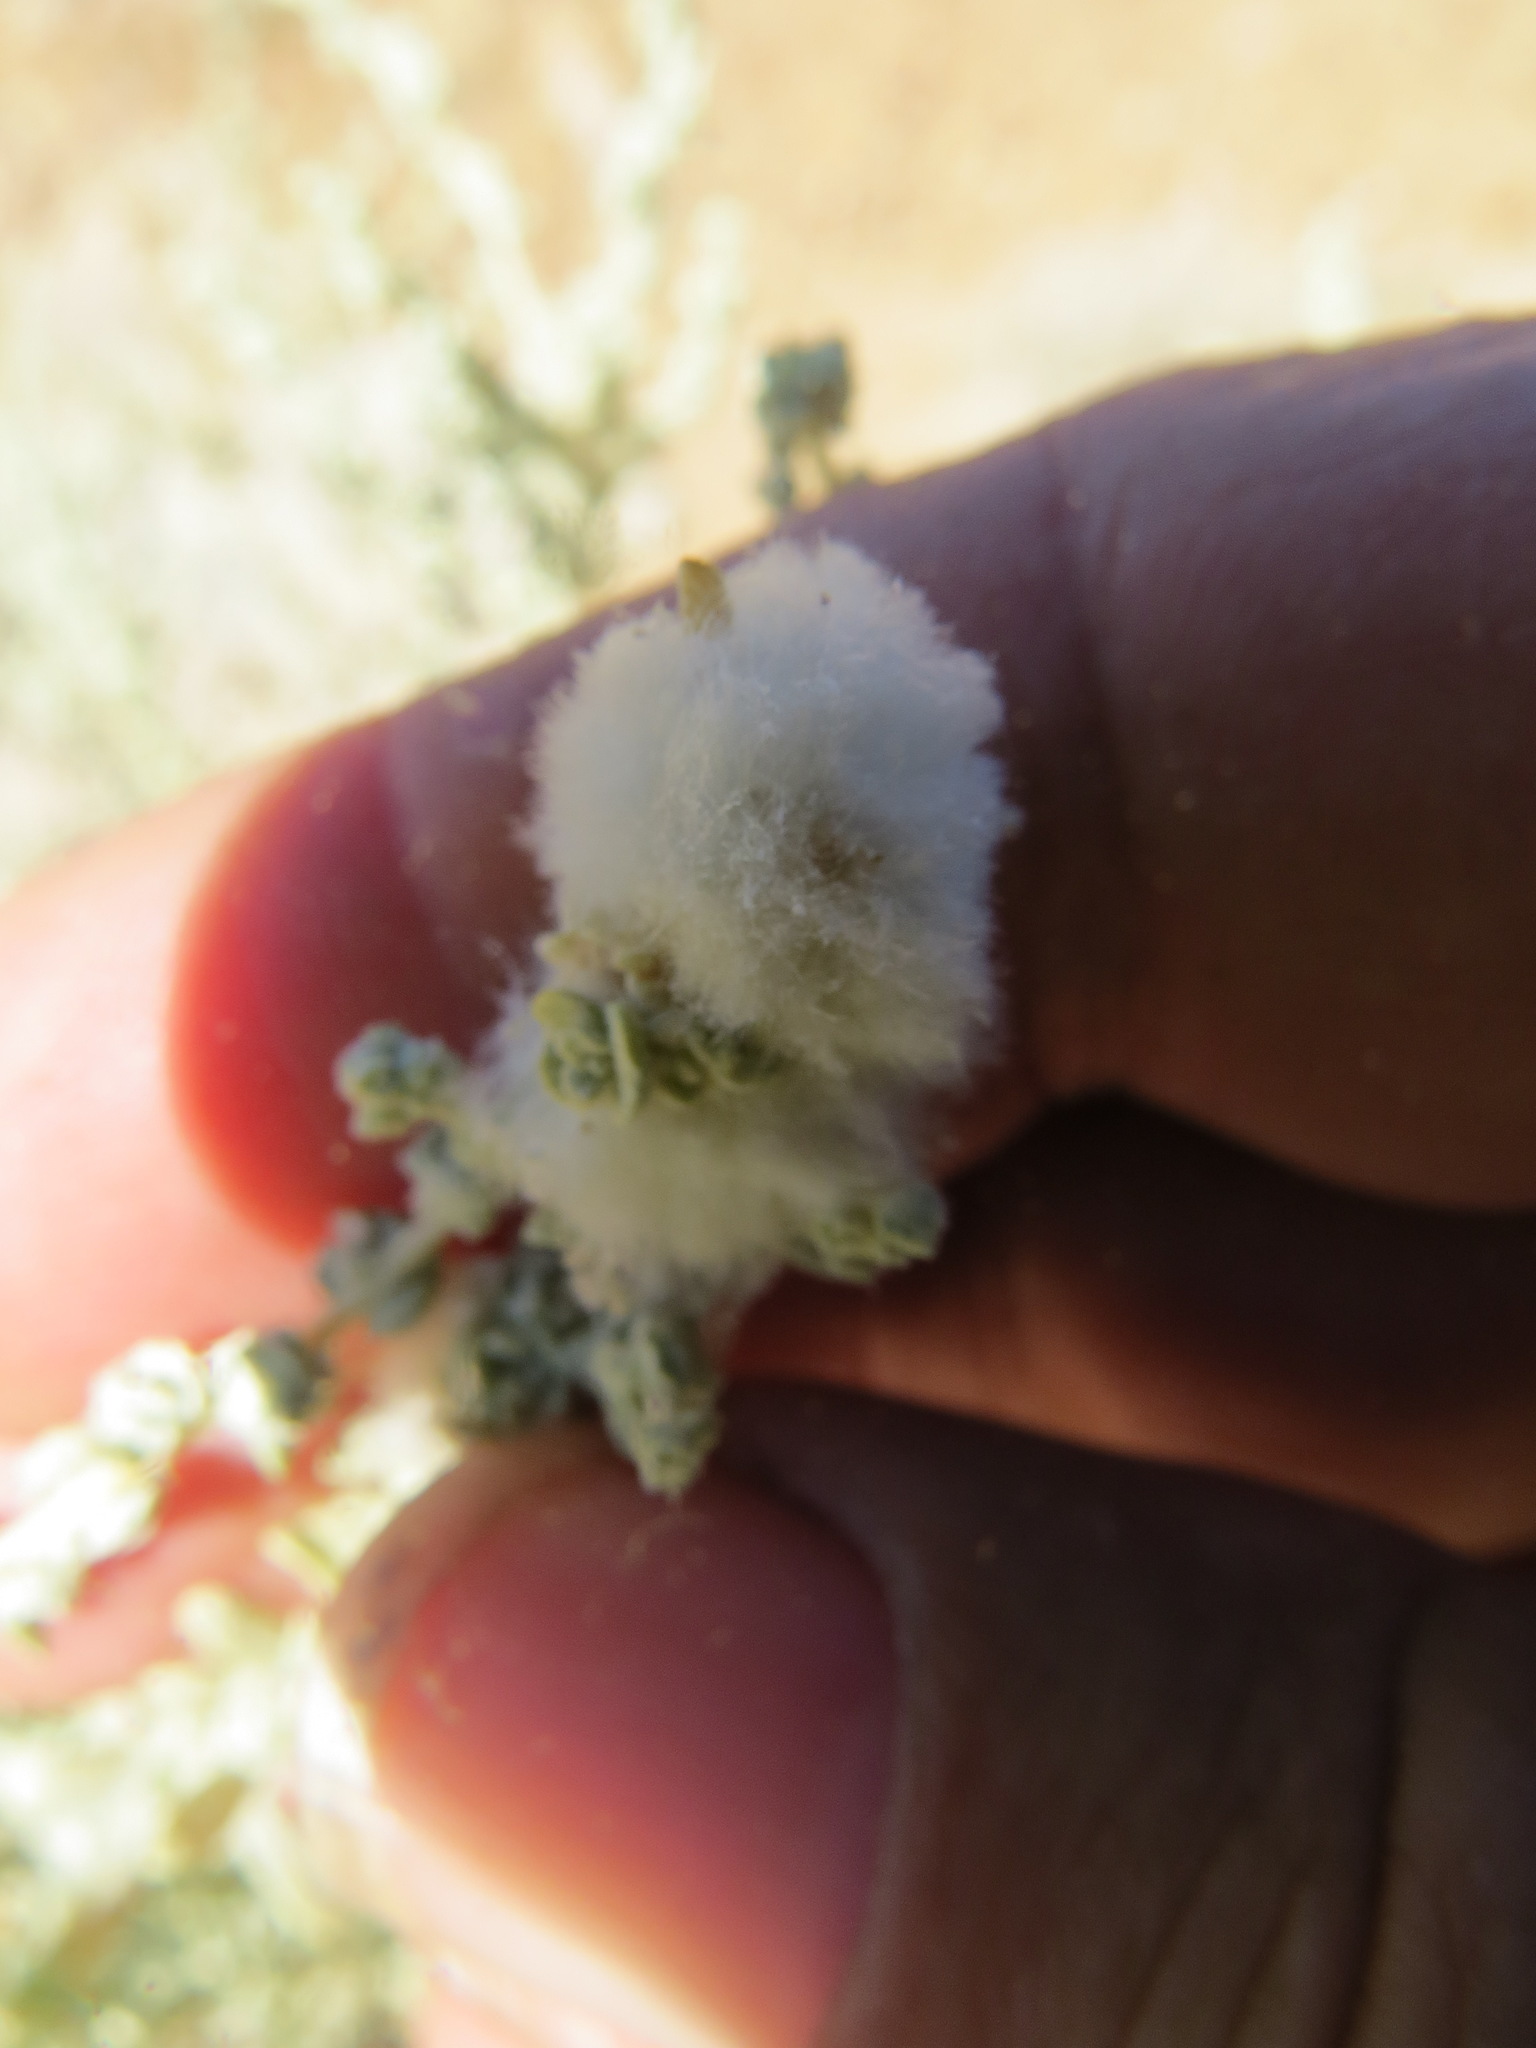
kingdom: Animalia
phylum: Arthropoda
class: Insecta
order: Diptera
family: Cecidomyiidae
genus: Asphondylia
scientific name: Asphondylia floccosa
